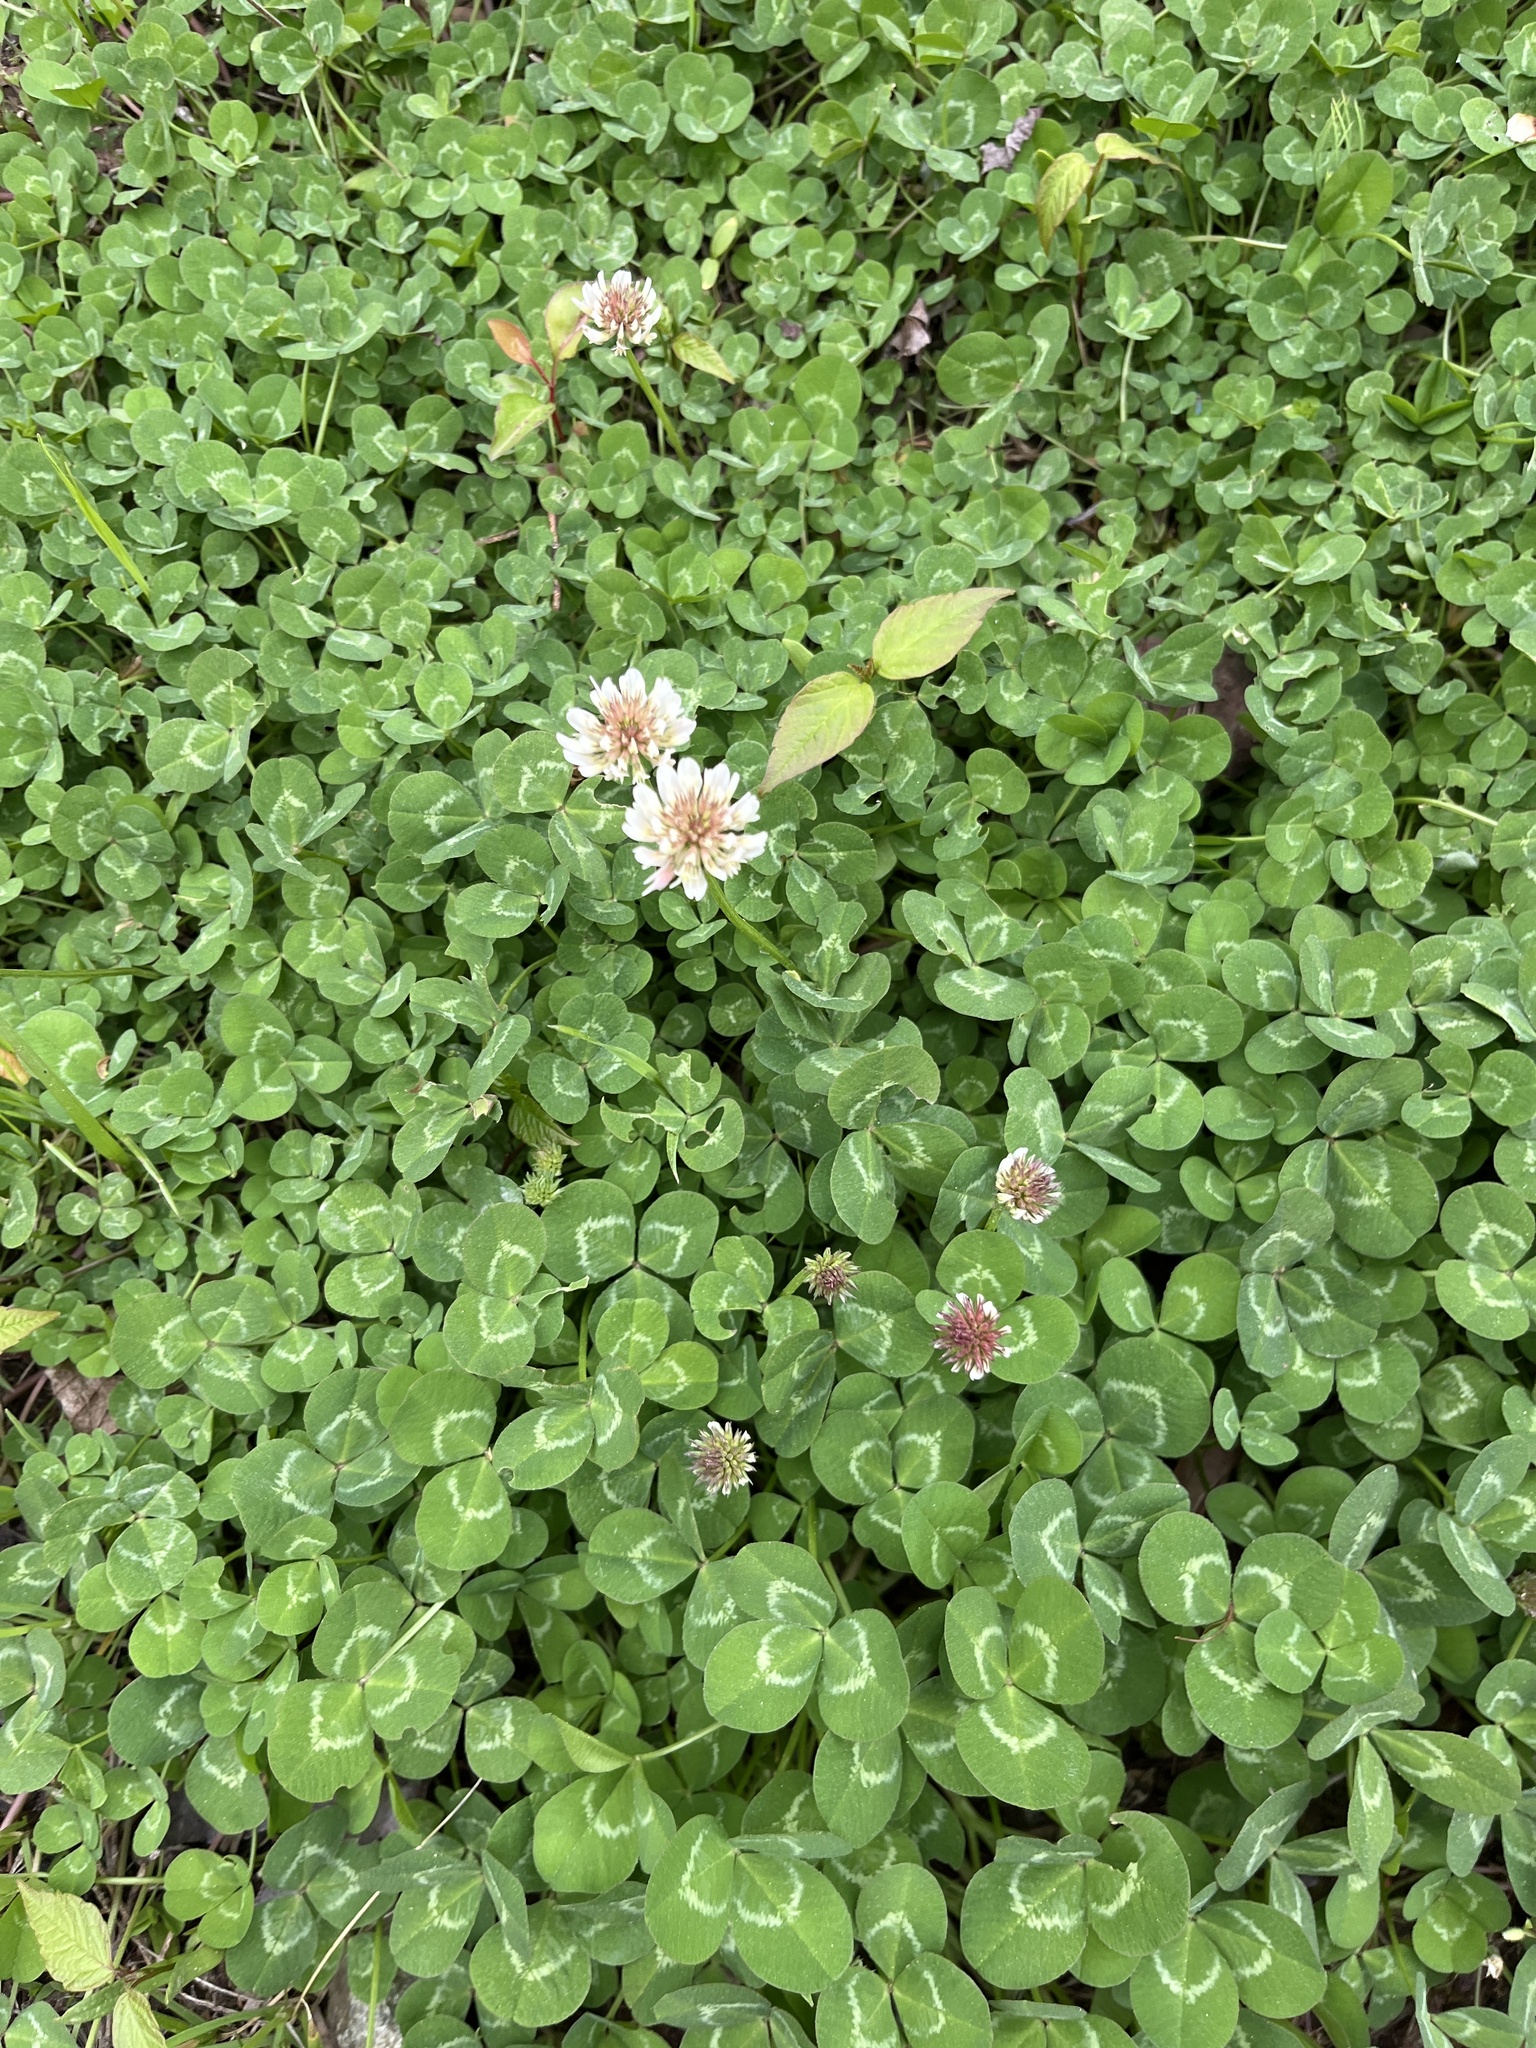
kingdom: Plantae
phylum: Tracheophyta
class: Magnoliopsida
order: Fabales
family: Fabaceae
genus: Trifolium
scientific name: Trifolium repens
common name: White clover
